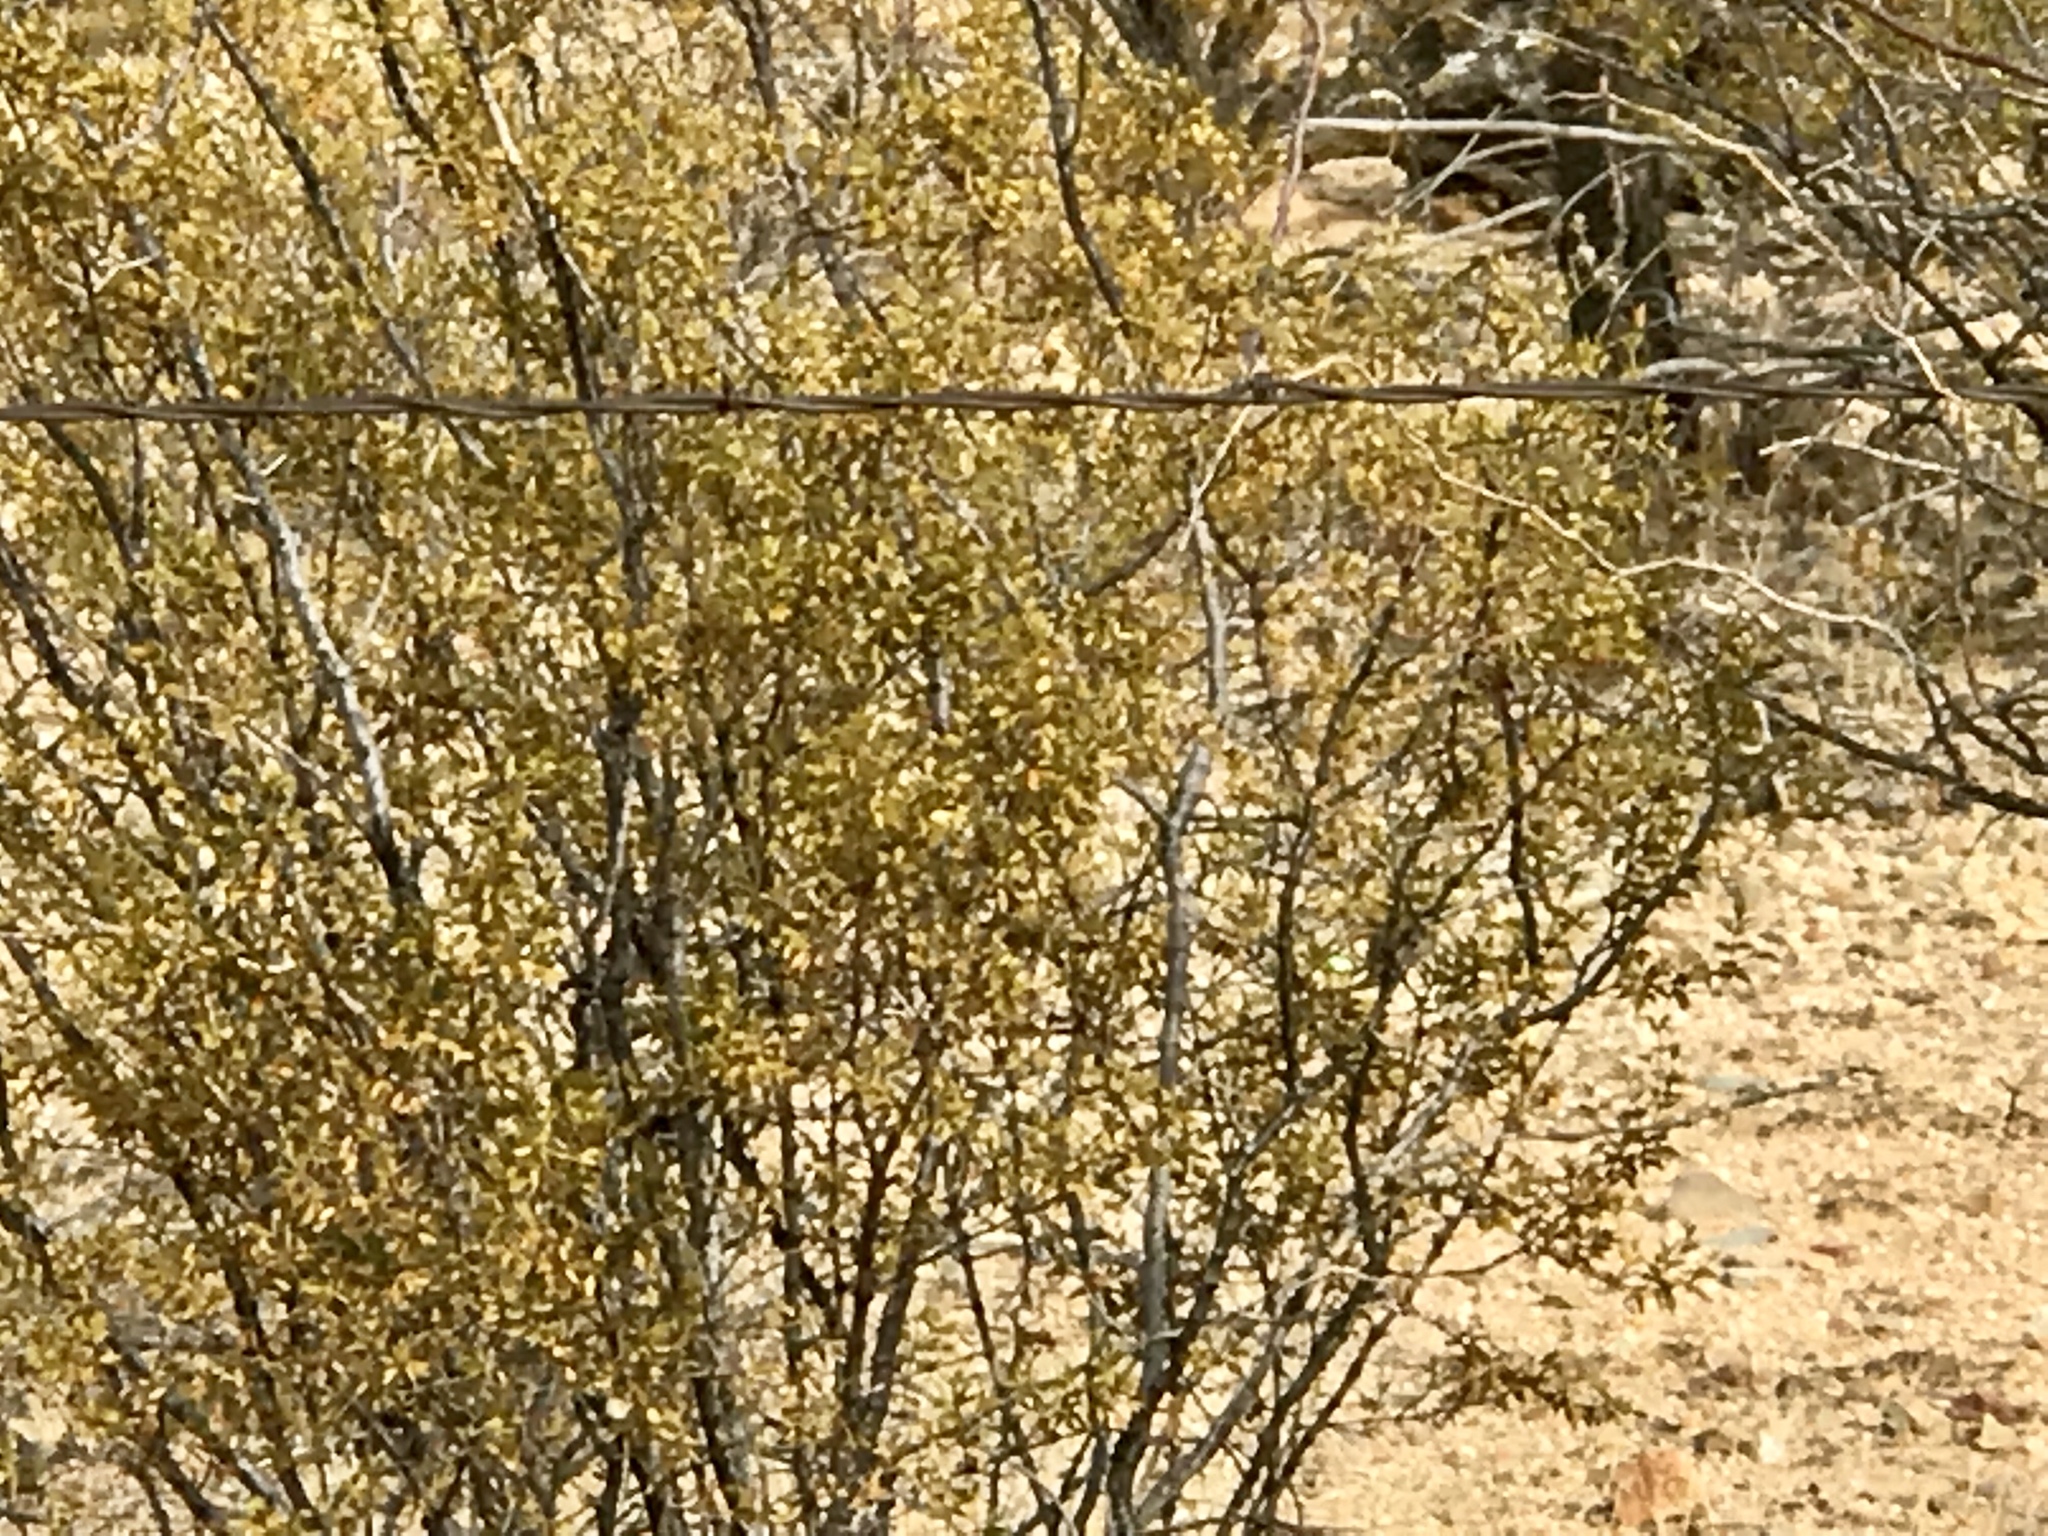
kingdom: Plantae
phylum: Tracheophyta
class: Magnoliopsida
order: Zygophyllales
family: Zygophyllaceae
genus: Larrea
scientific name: Larrea tridentata
